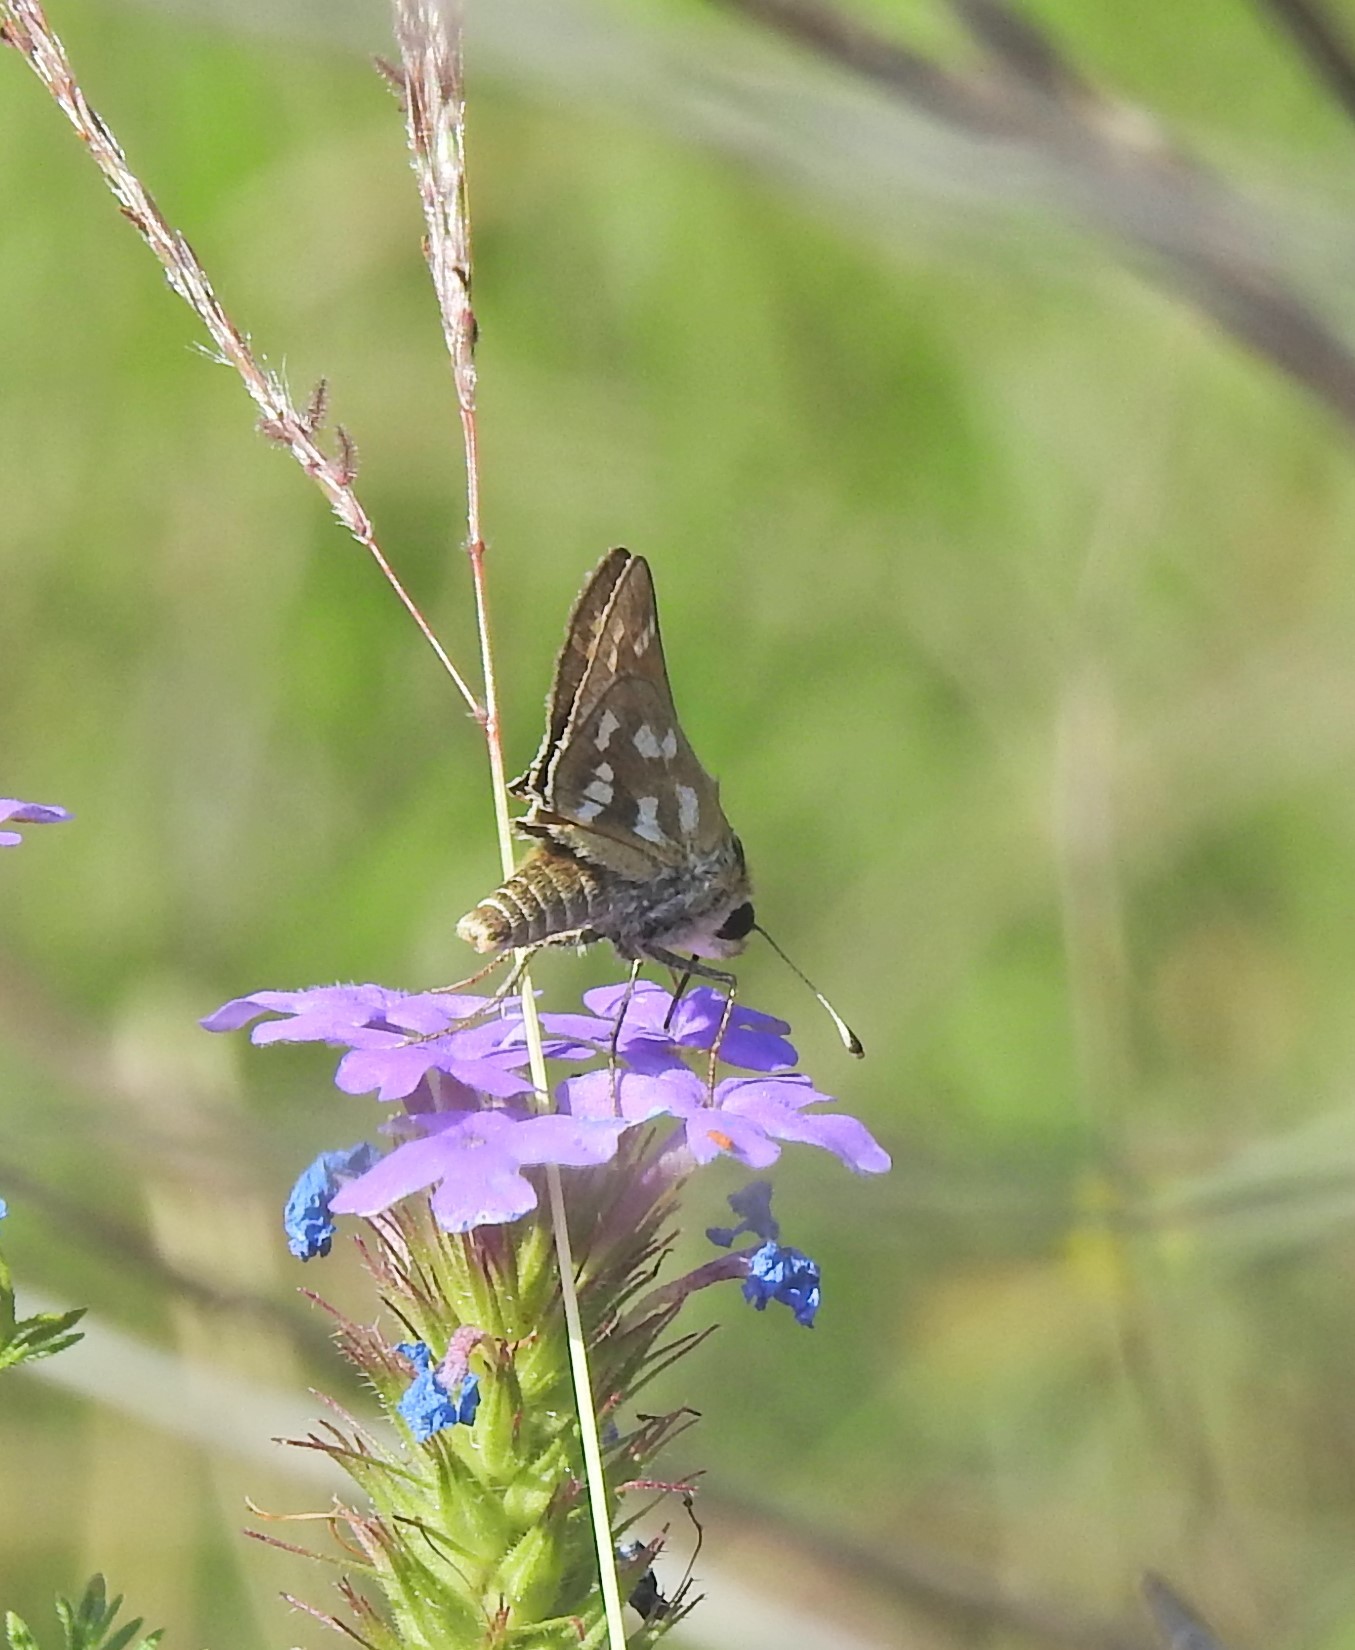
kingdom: Animalia
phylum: Arthropoda
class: Insecta
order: Lepidoptera
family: Hesperiidae
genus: Hesperia
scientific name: Hesperia viridis
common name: Green skipper
